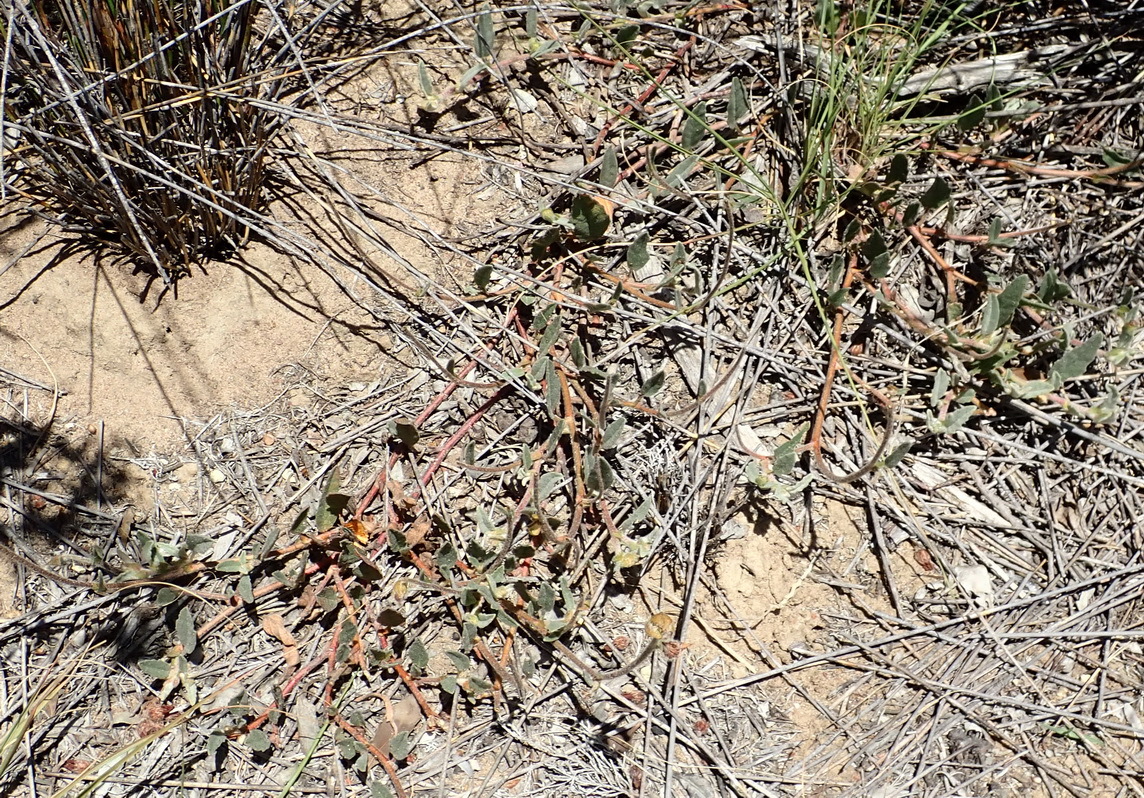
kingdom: Plantae
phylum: Tracheophyta
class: Magnoliopsida
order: Malvales
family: Malvaceae
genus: Hermannia
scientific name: Hermannia decumbens
